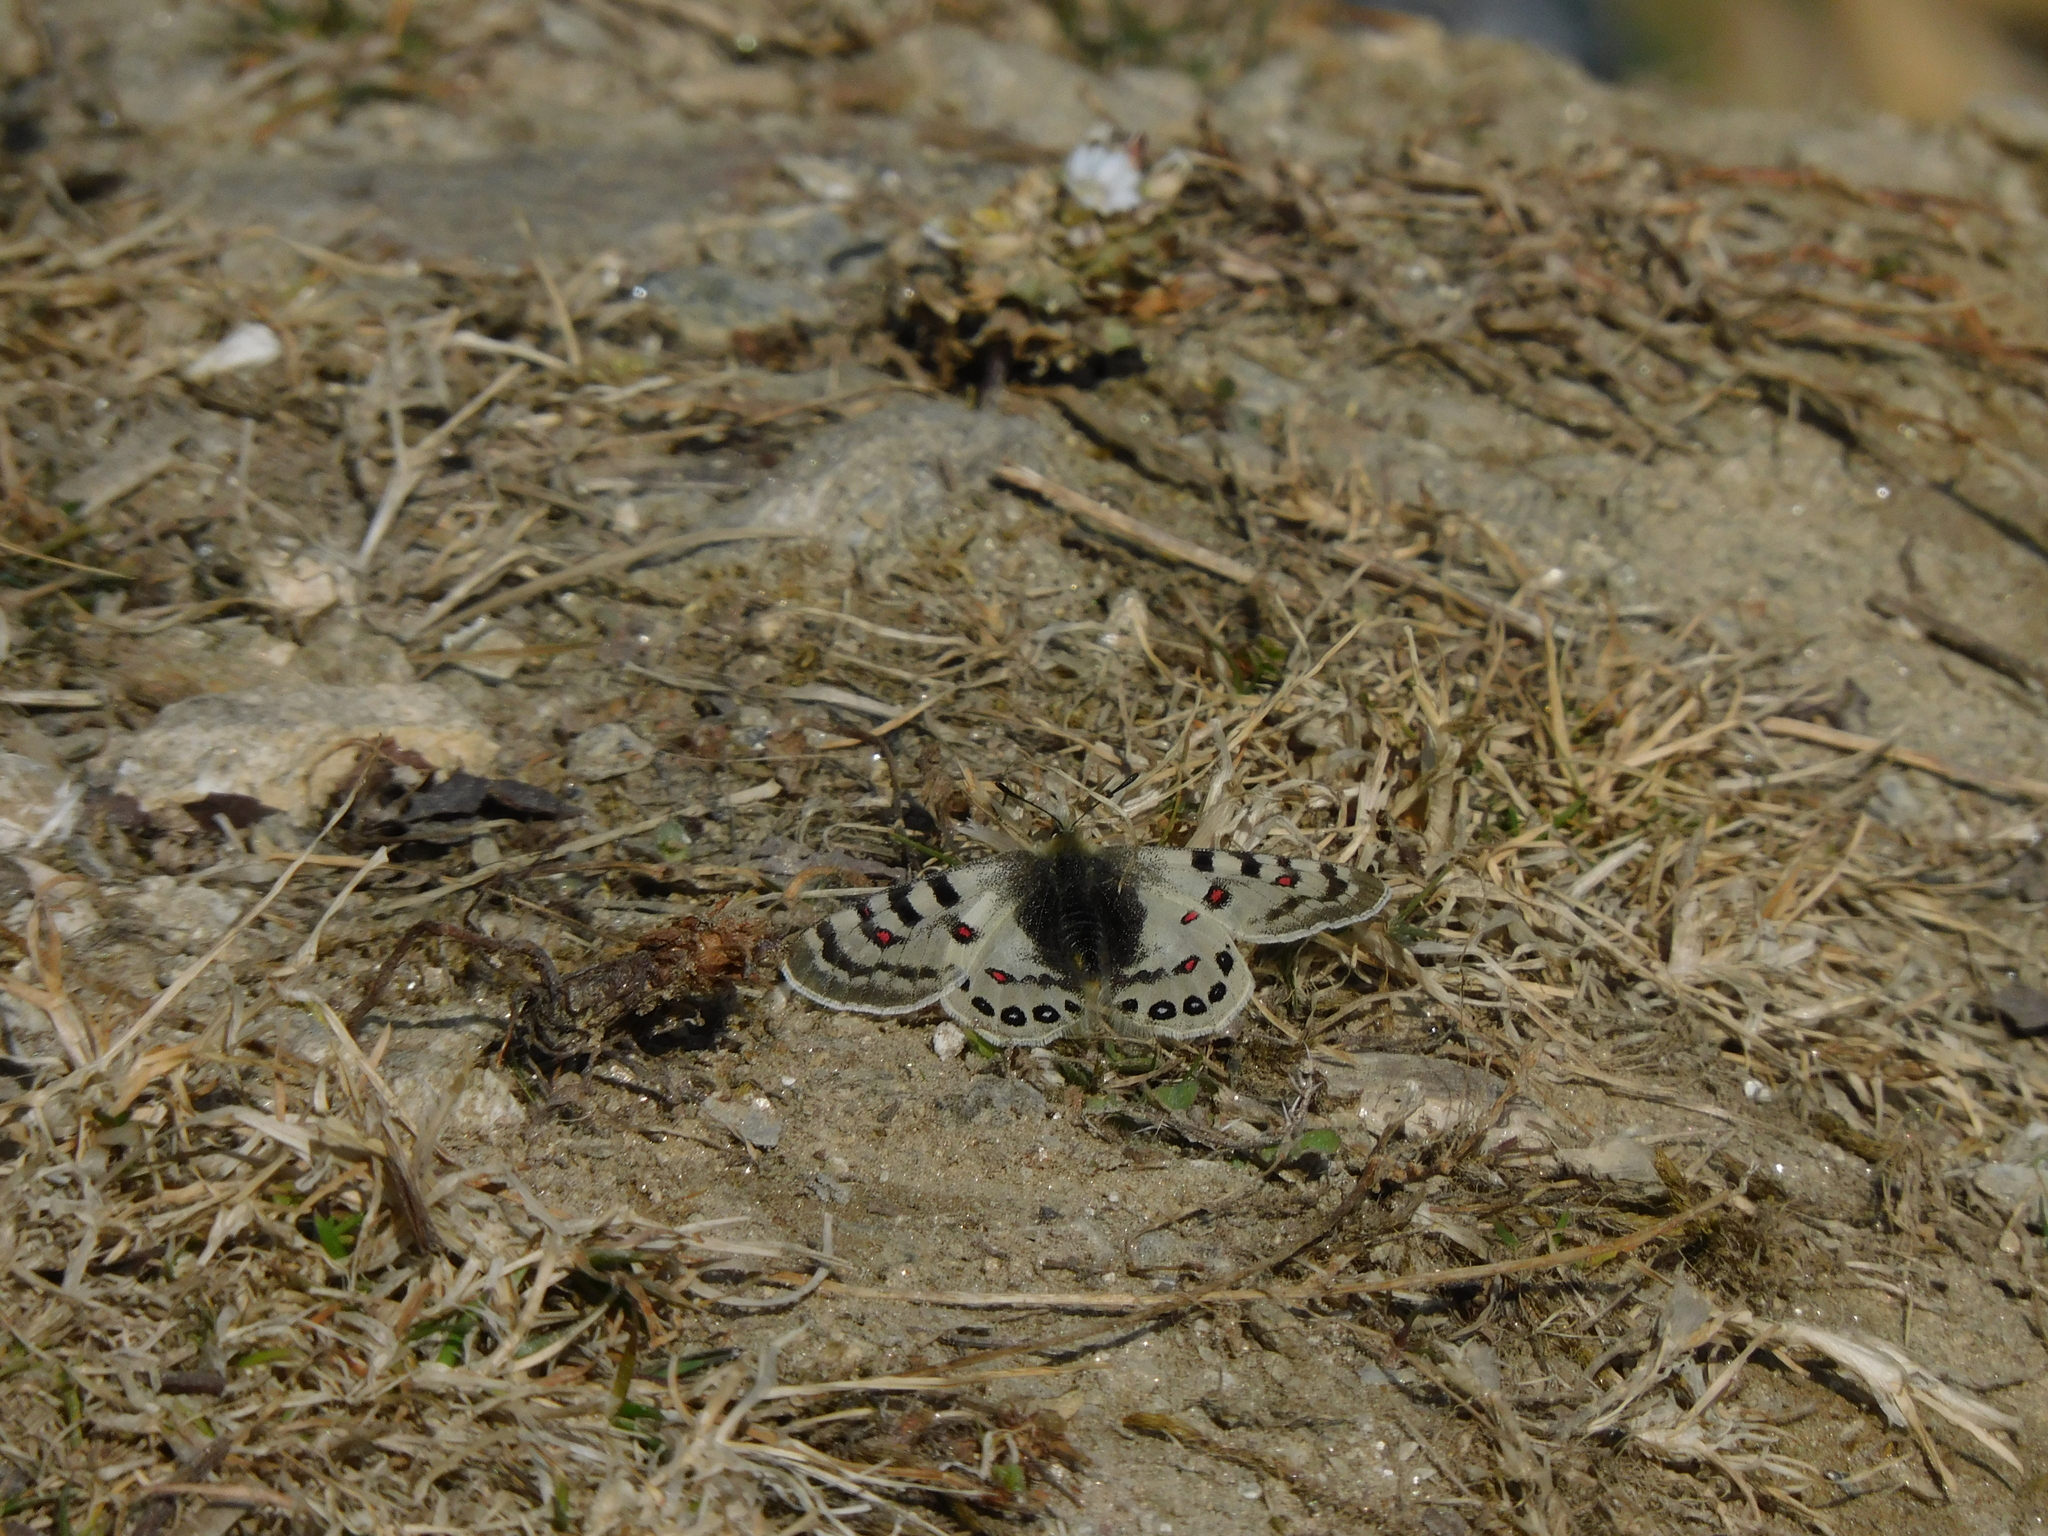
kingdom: Animalia
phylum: Arthropoda
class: Insecta
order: Lepidoptera
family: Papilionidae
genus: Parnassius
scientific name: Parnassius hardwickii
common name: Common blue apollo
